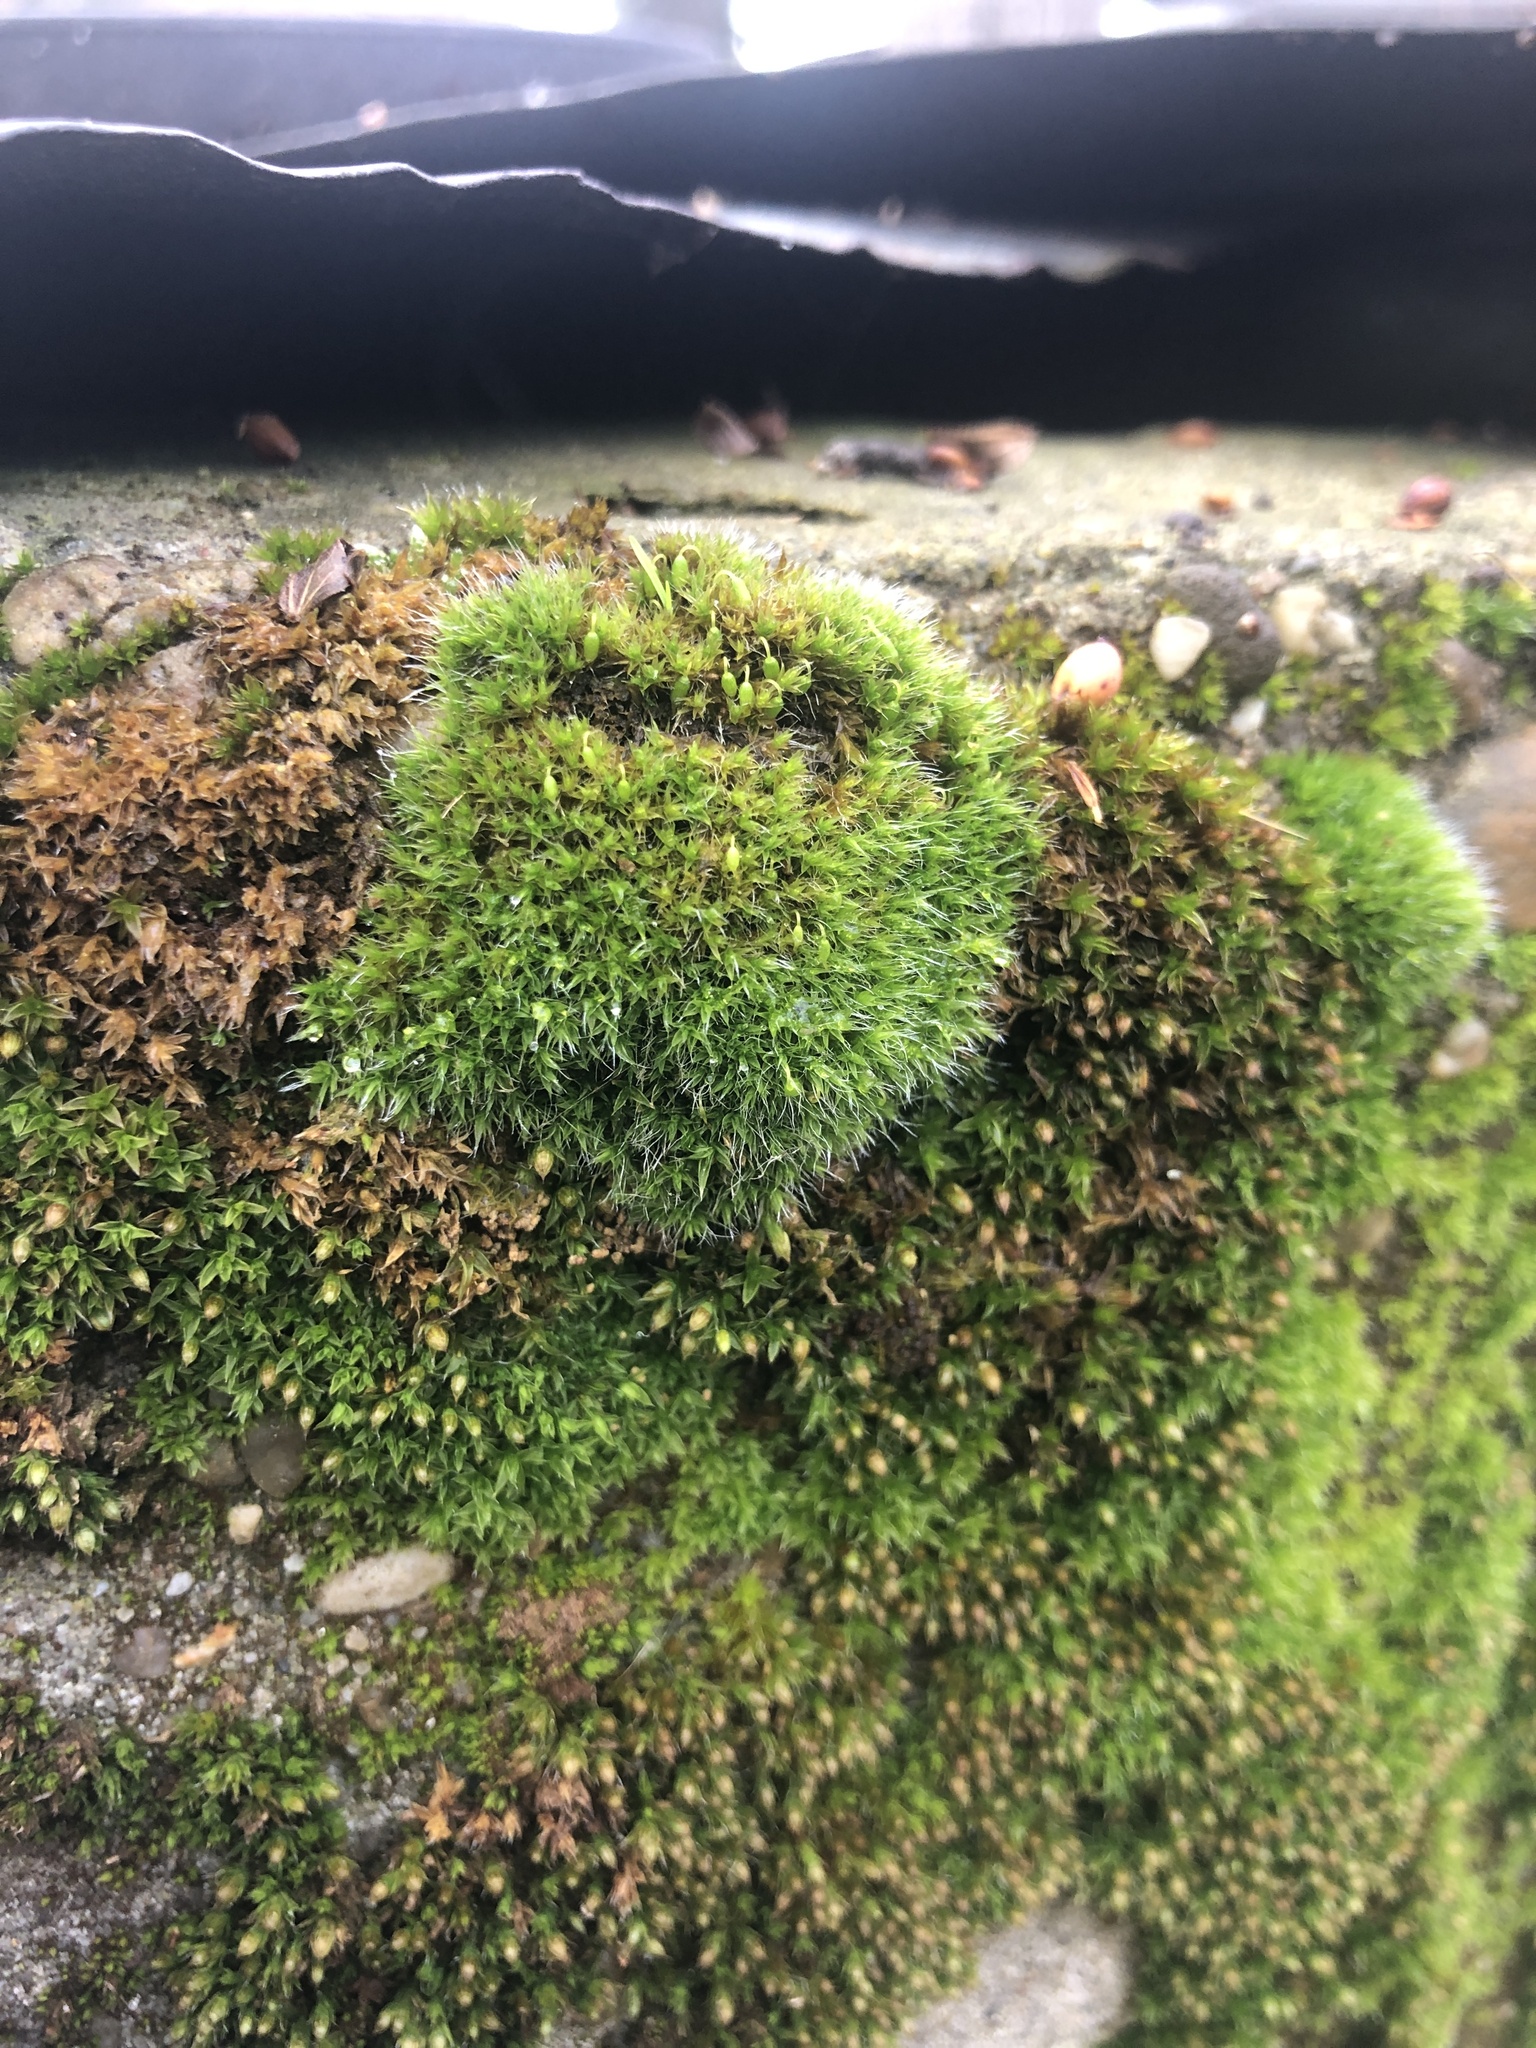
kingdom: Plantae
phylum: Bryophyta
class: Bryopsida
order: Grimmiales
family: Grimmiaceae
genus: Grimmia
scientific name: Grimmia pulvinata
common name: Grey-cushioned grimmia
